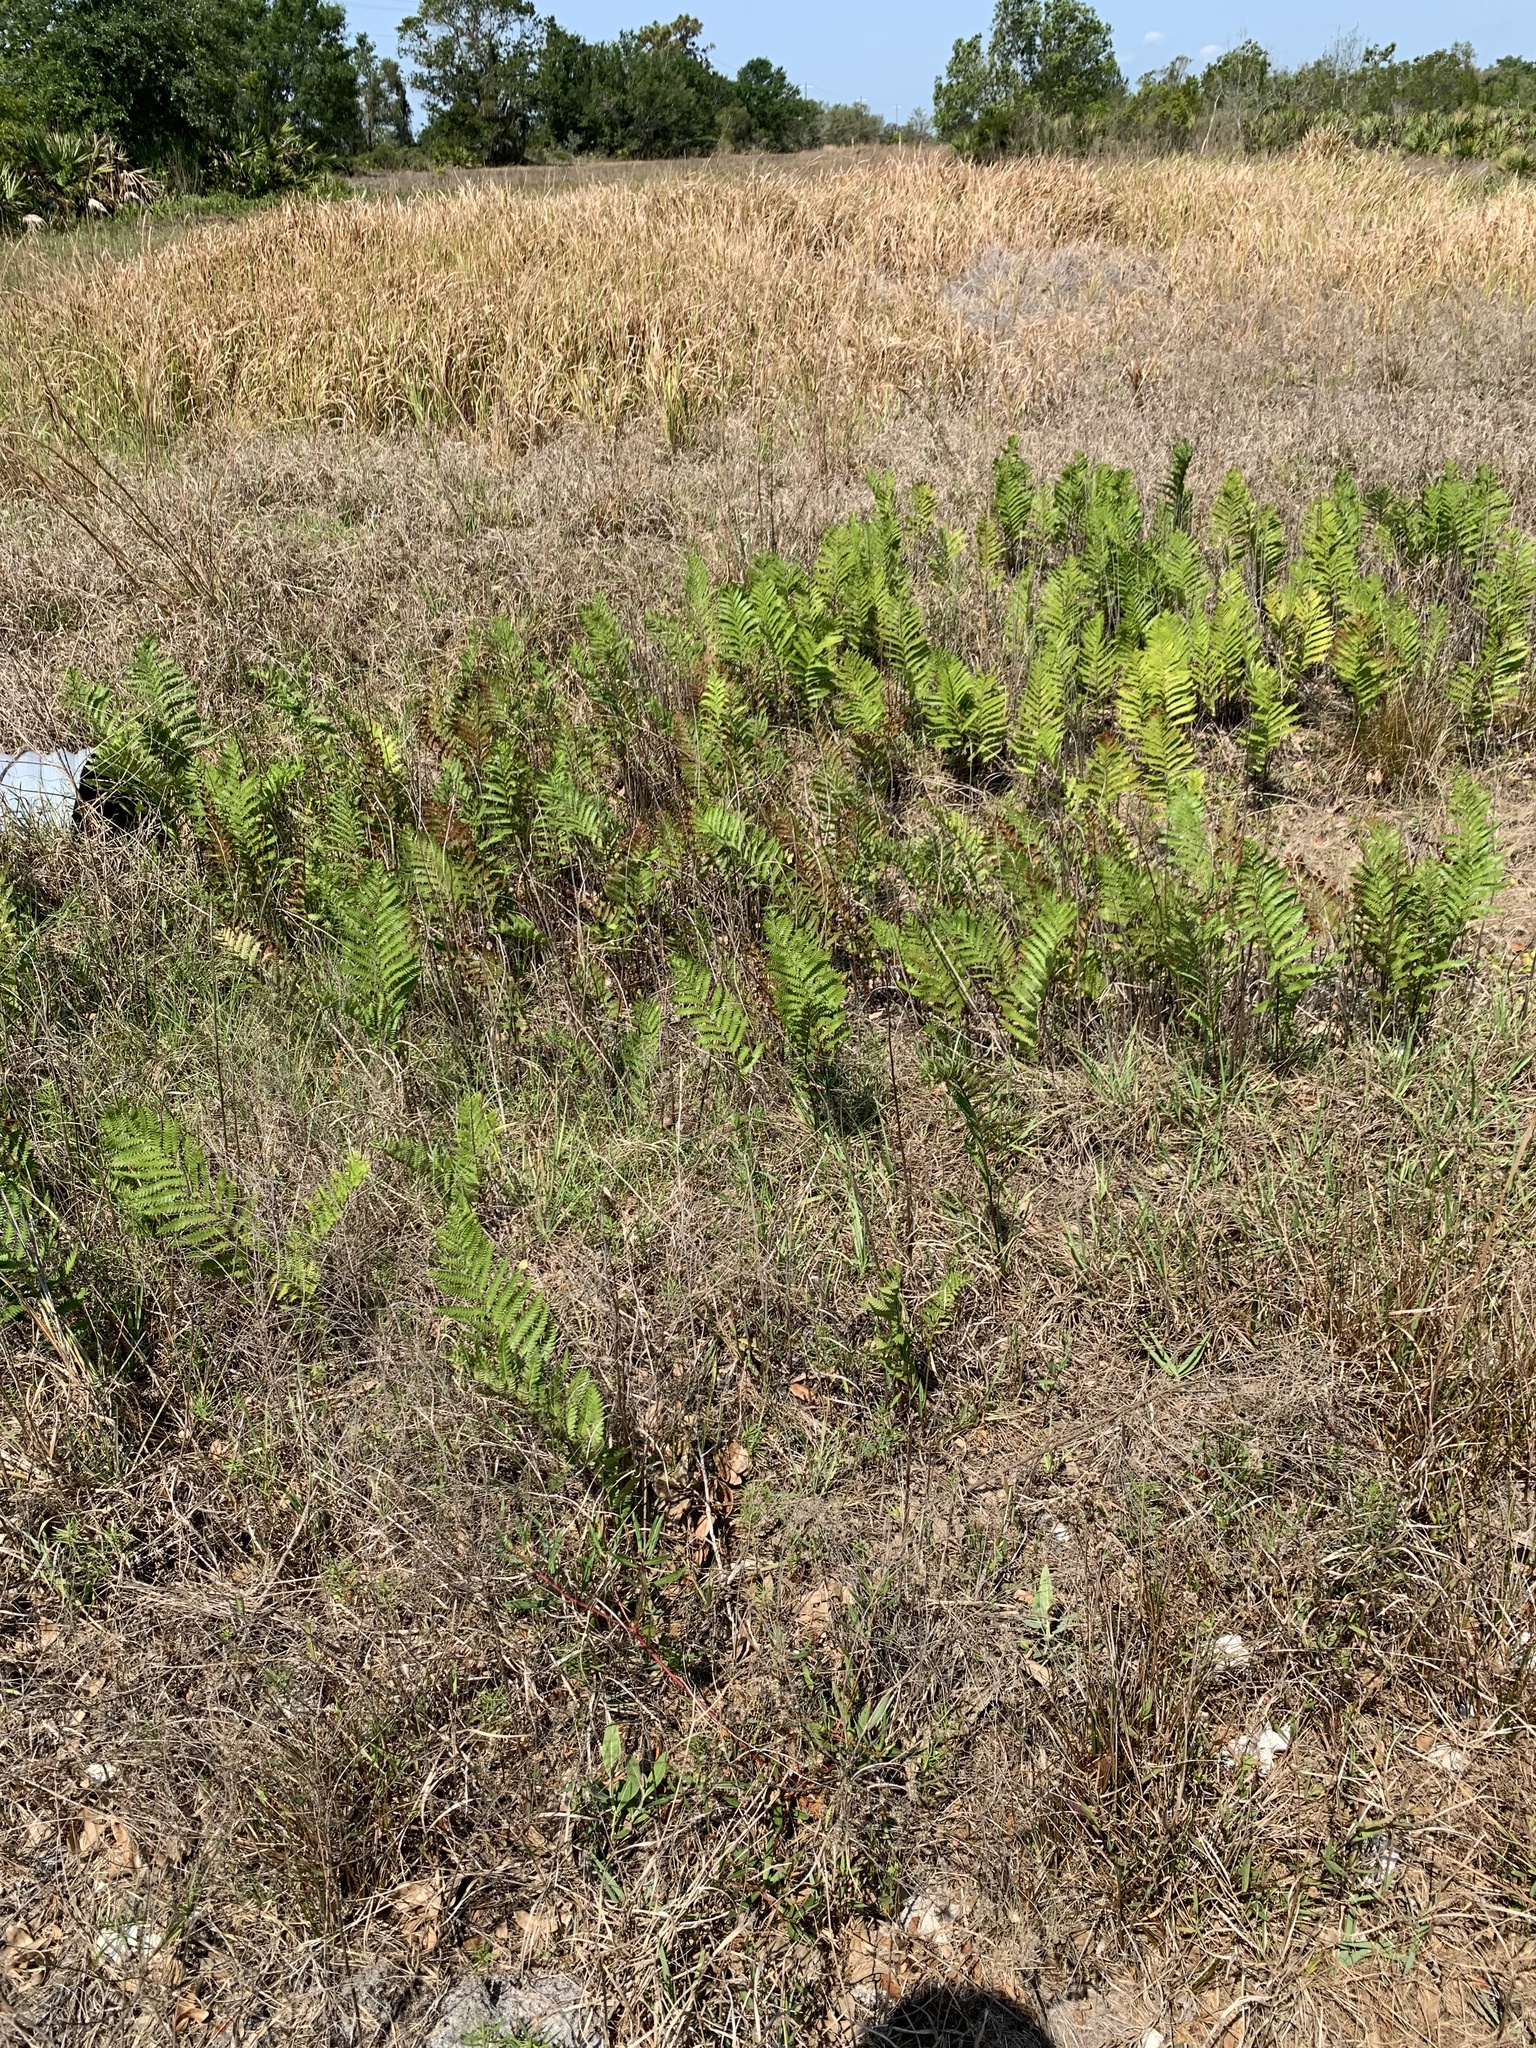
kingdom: Plantae
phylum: Tracheophyta
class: Polypodiopsida
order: Polypodiales
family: Blechnaceae
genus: Anchistea
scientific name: Anchistea virginica
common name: Virginia chain fern
